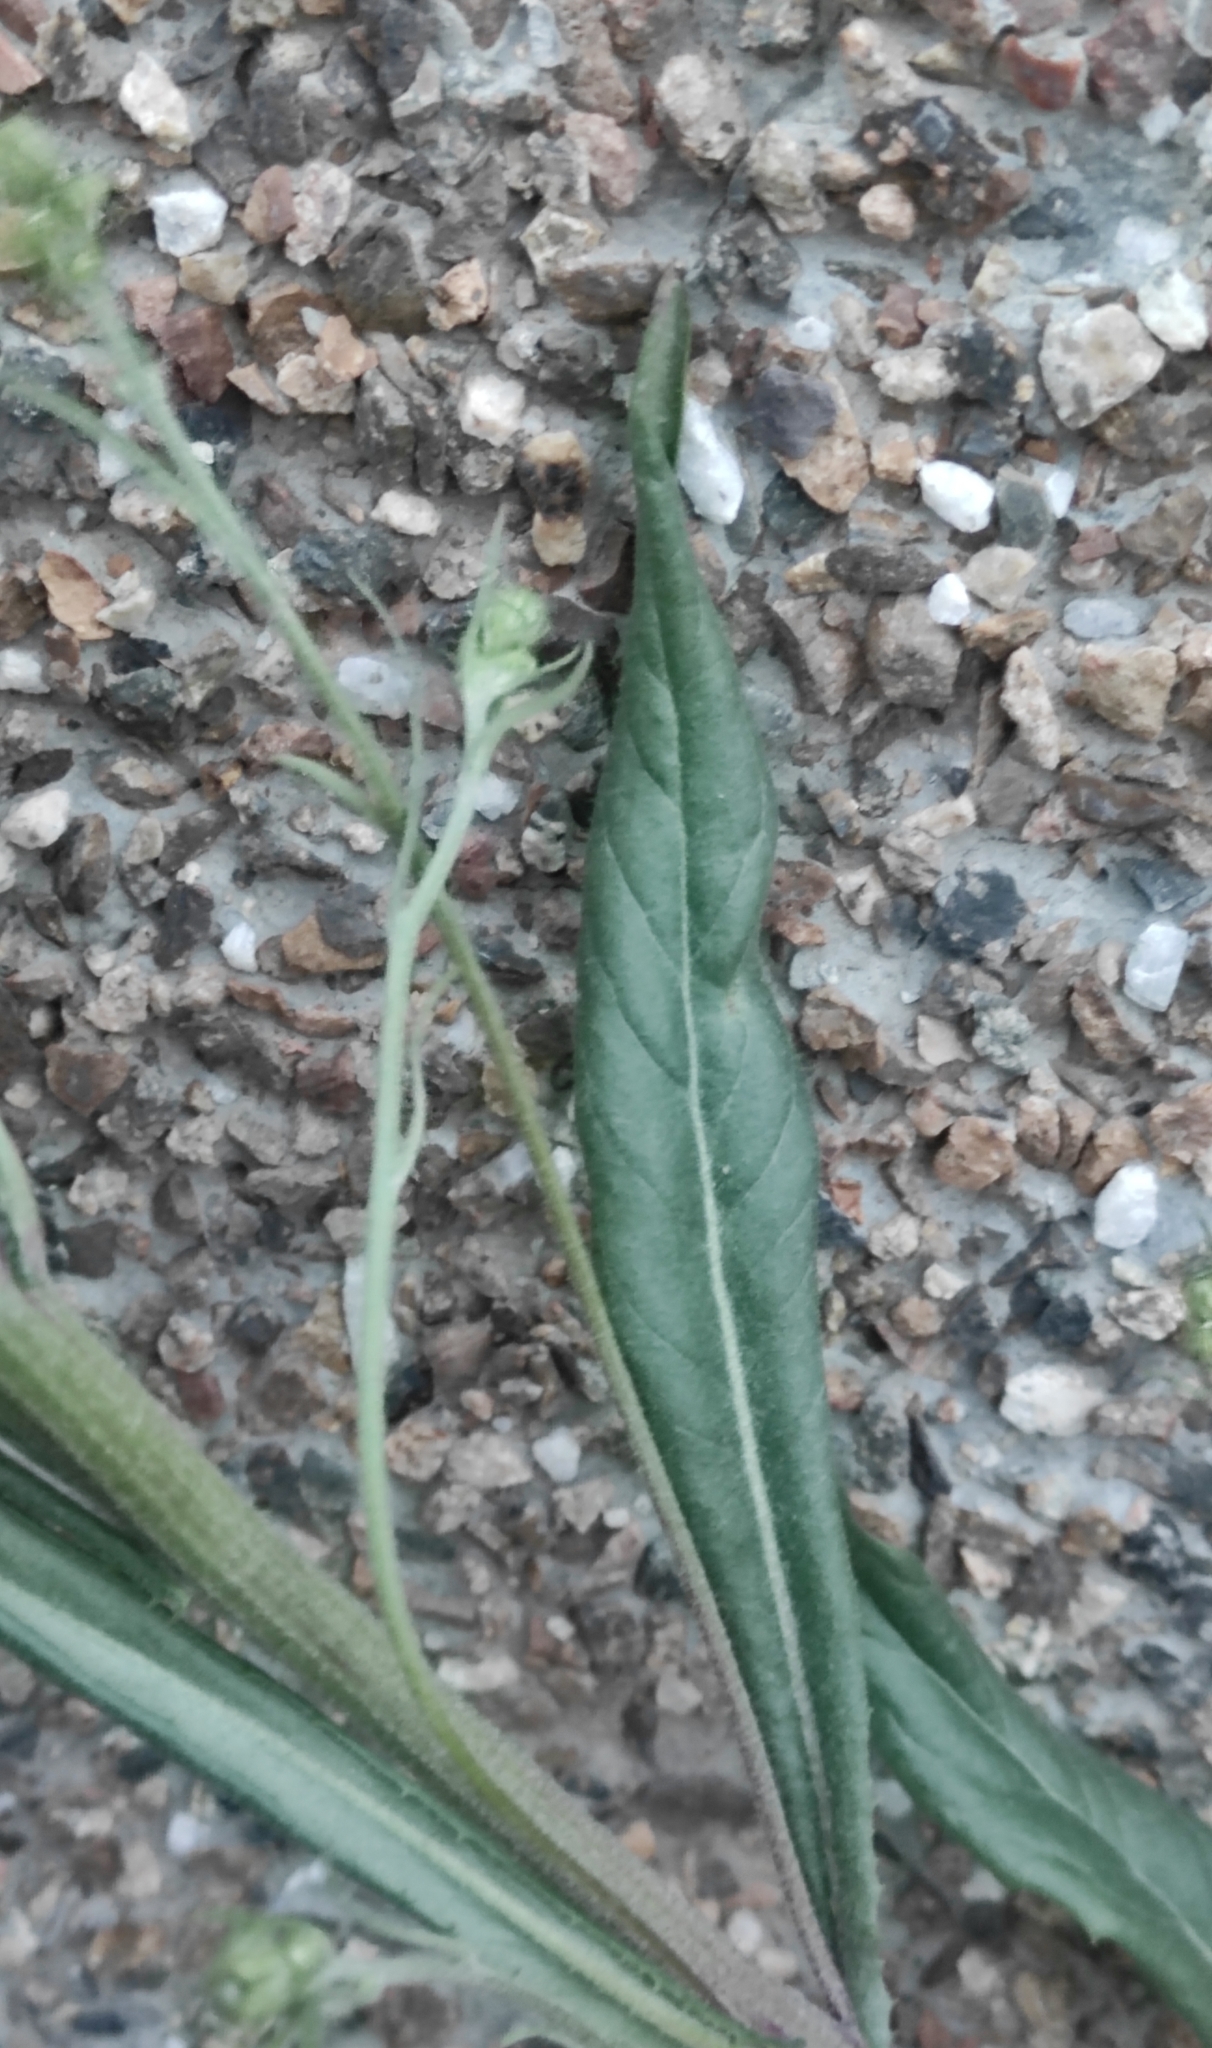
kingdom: Plantae
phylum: Tracheophyta
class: Magnoliopsida
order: Asterales
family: Asteraceae
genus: Crepis
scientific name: Crepis tectorum
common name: Narrow-leaved hawk's-beard
